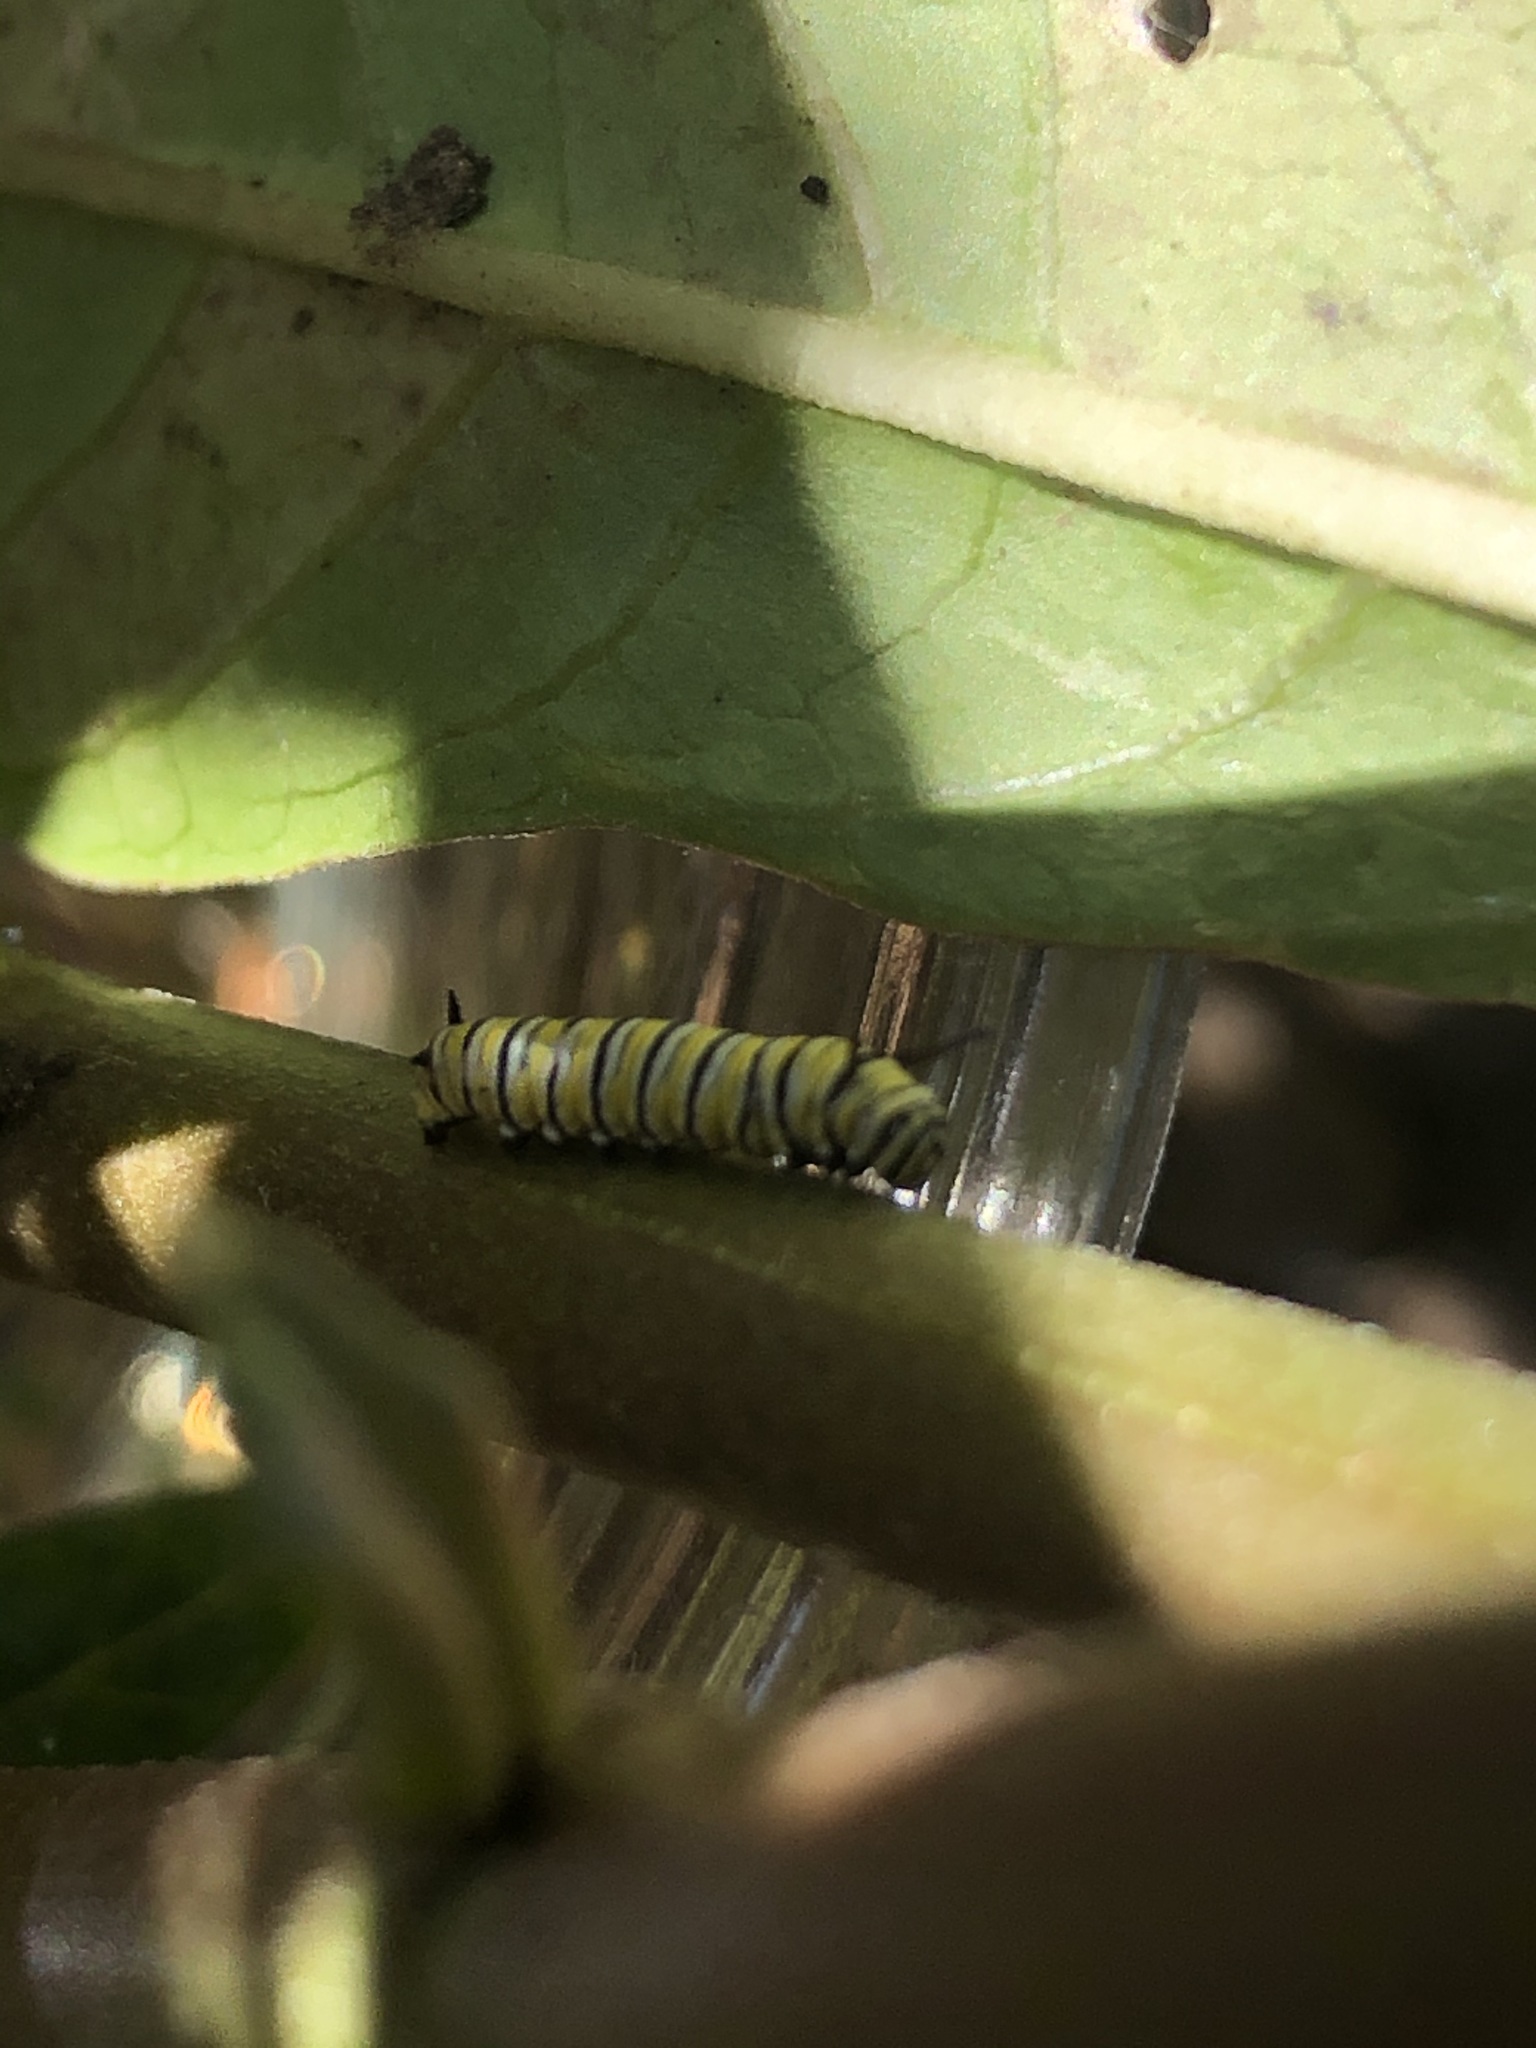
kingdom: Animalia
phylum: Arthropoda
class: Insecta
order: Lepidoptera
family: Nymphalidae
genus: Danaus
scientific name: Danaus plexippus
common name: Monarch
